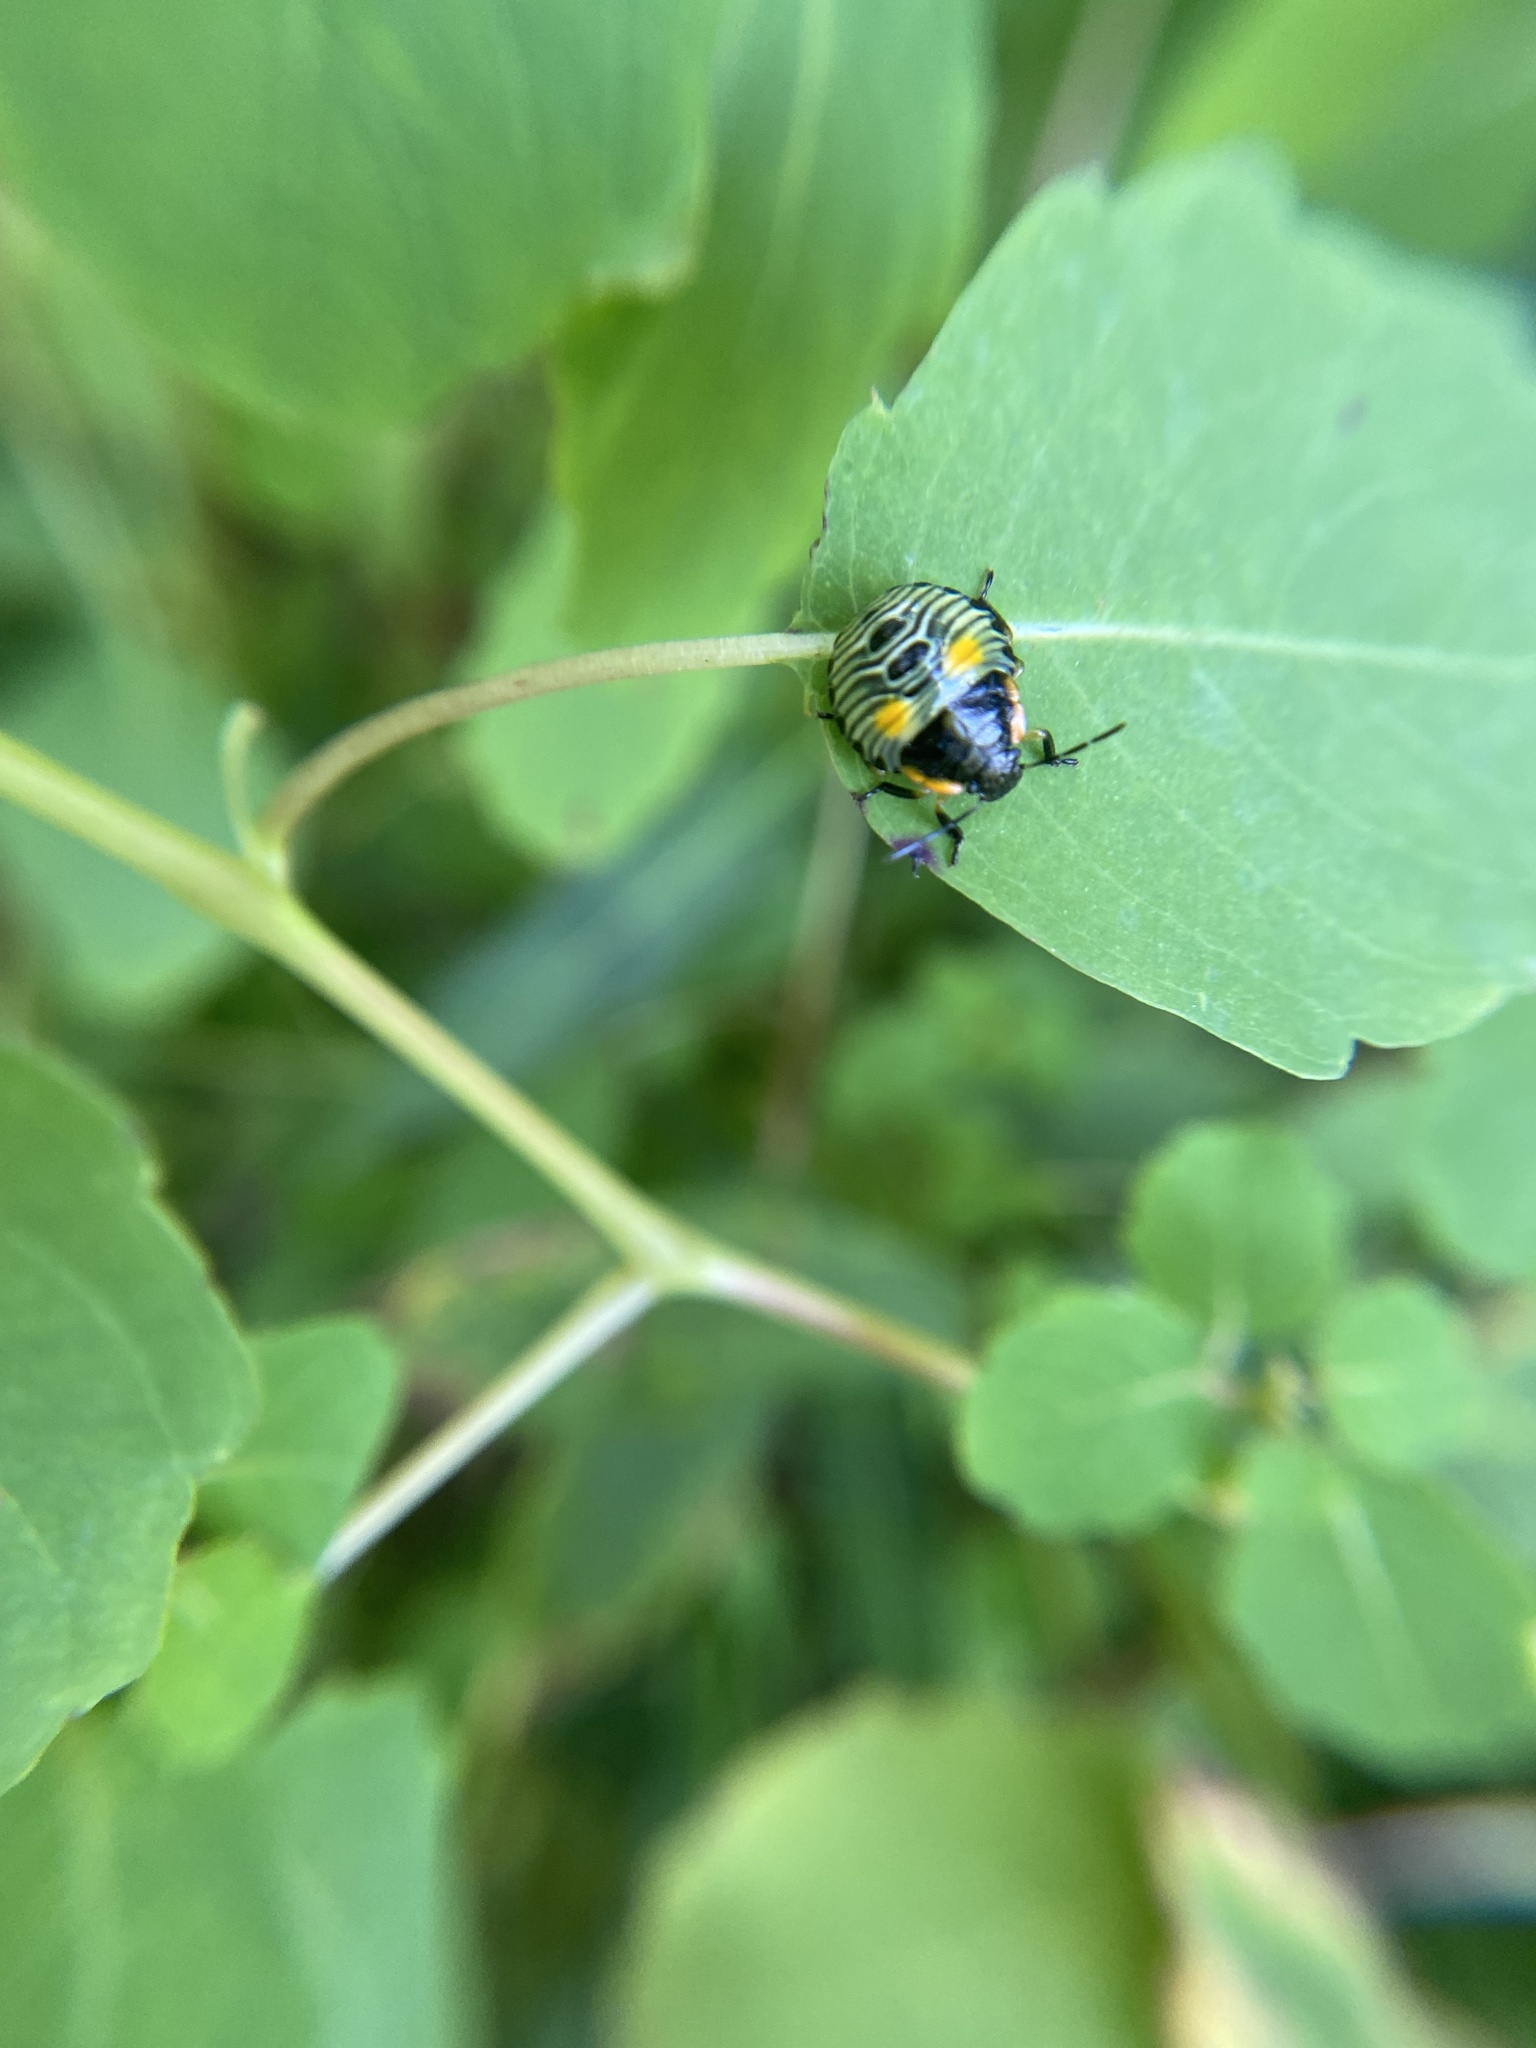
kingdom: Animalia
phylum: Arthropoda
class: Insecta
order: Hemiptera
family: Pentatomidae
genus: Chinavia
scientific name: Chinavia hilaris
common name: Green stink bug
